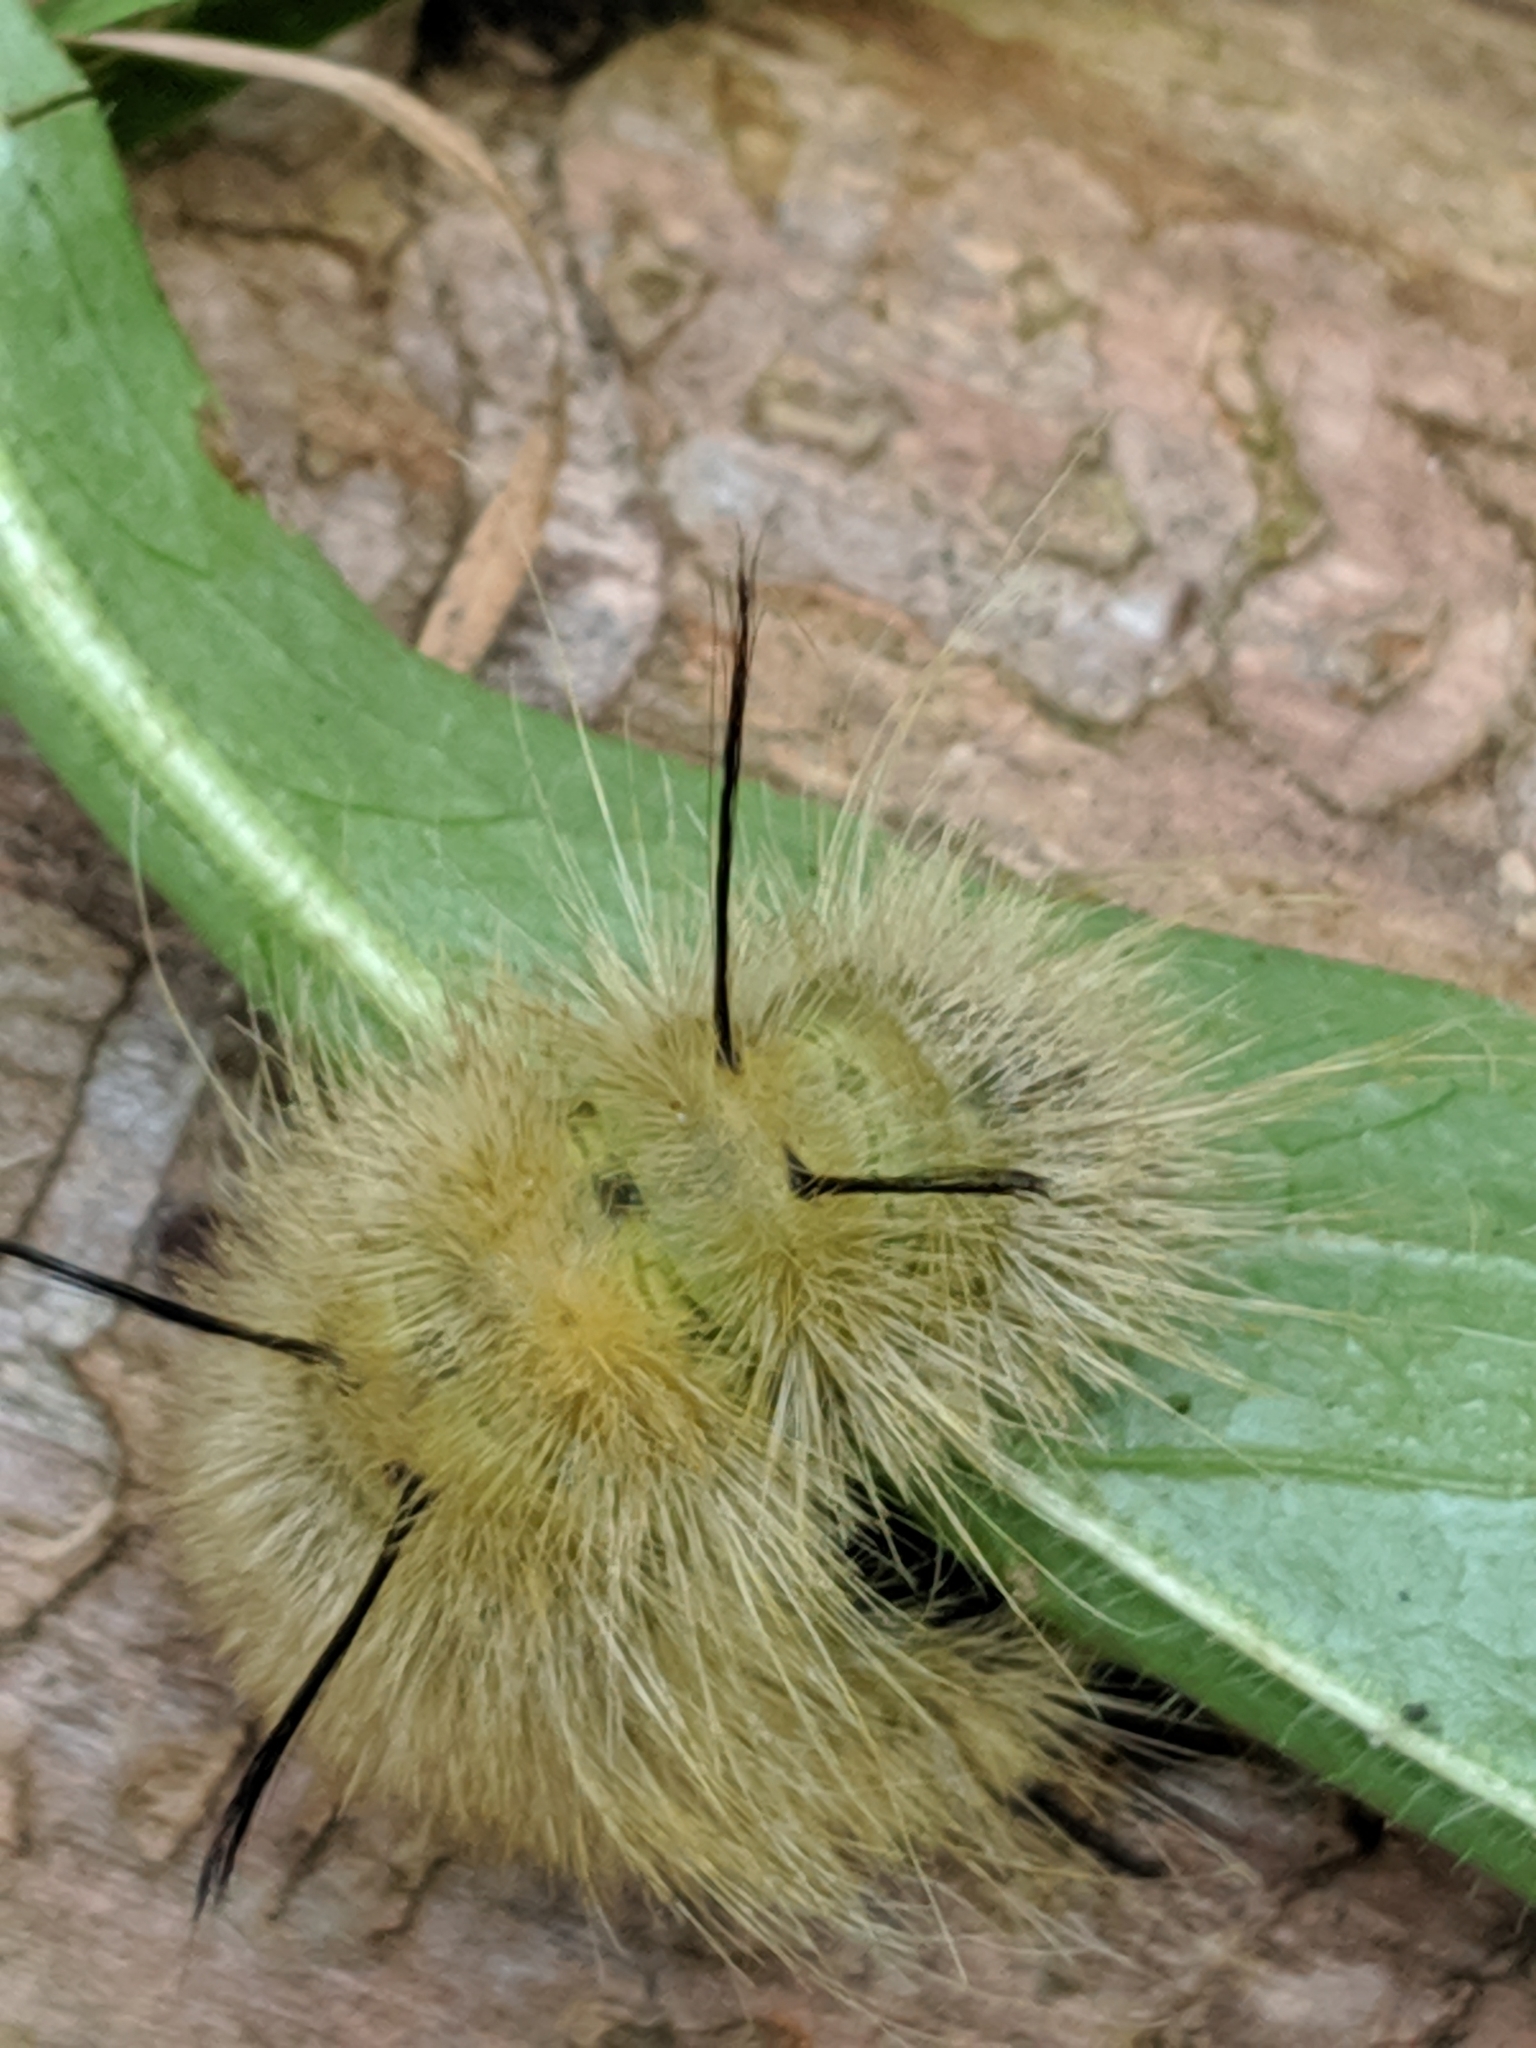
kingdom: Animalia
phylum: Arthropoda
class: Insecta
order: Lepidoptera
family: Noctuidae
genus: Acronicta
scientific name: Acronicta americana
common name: American dagger
